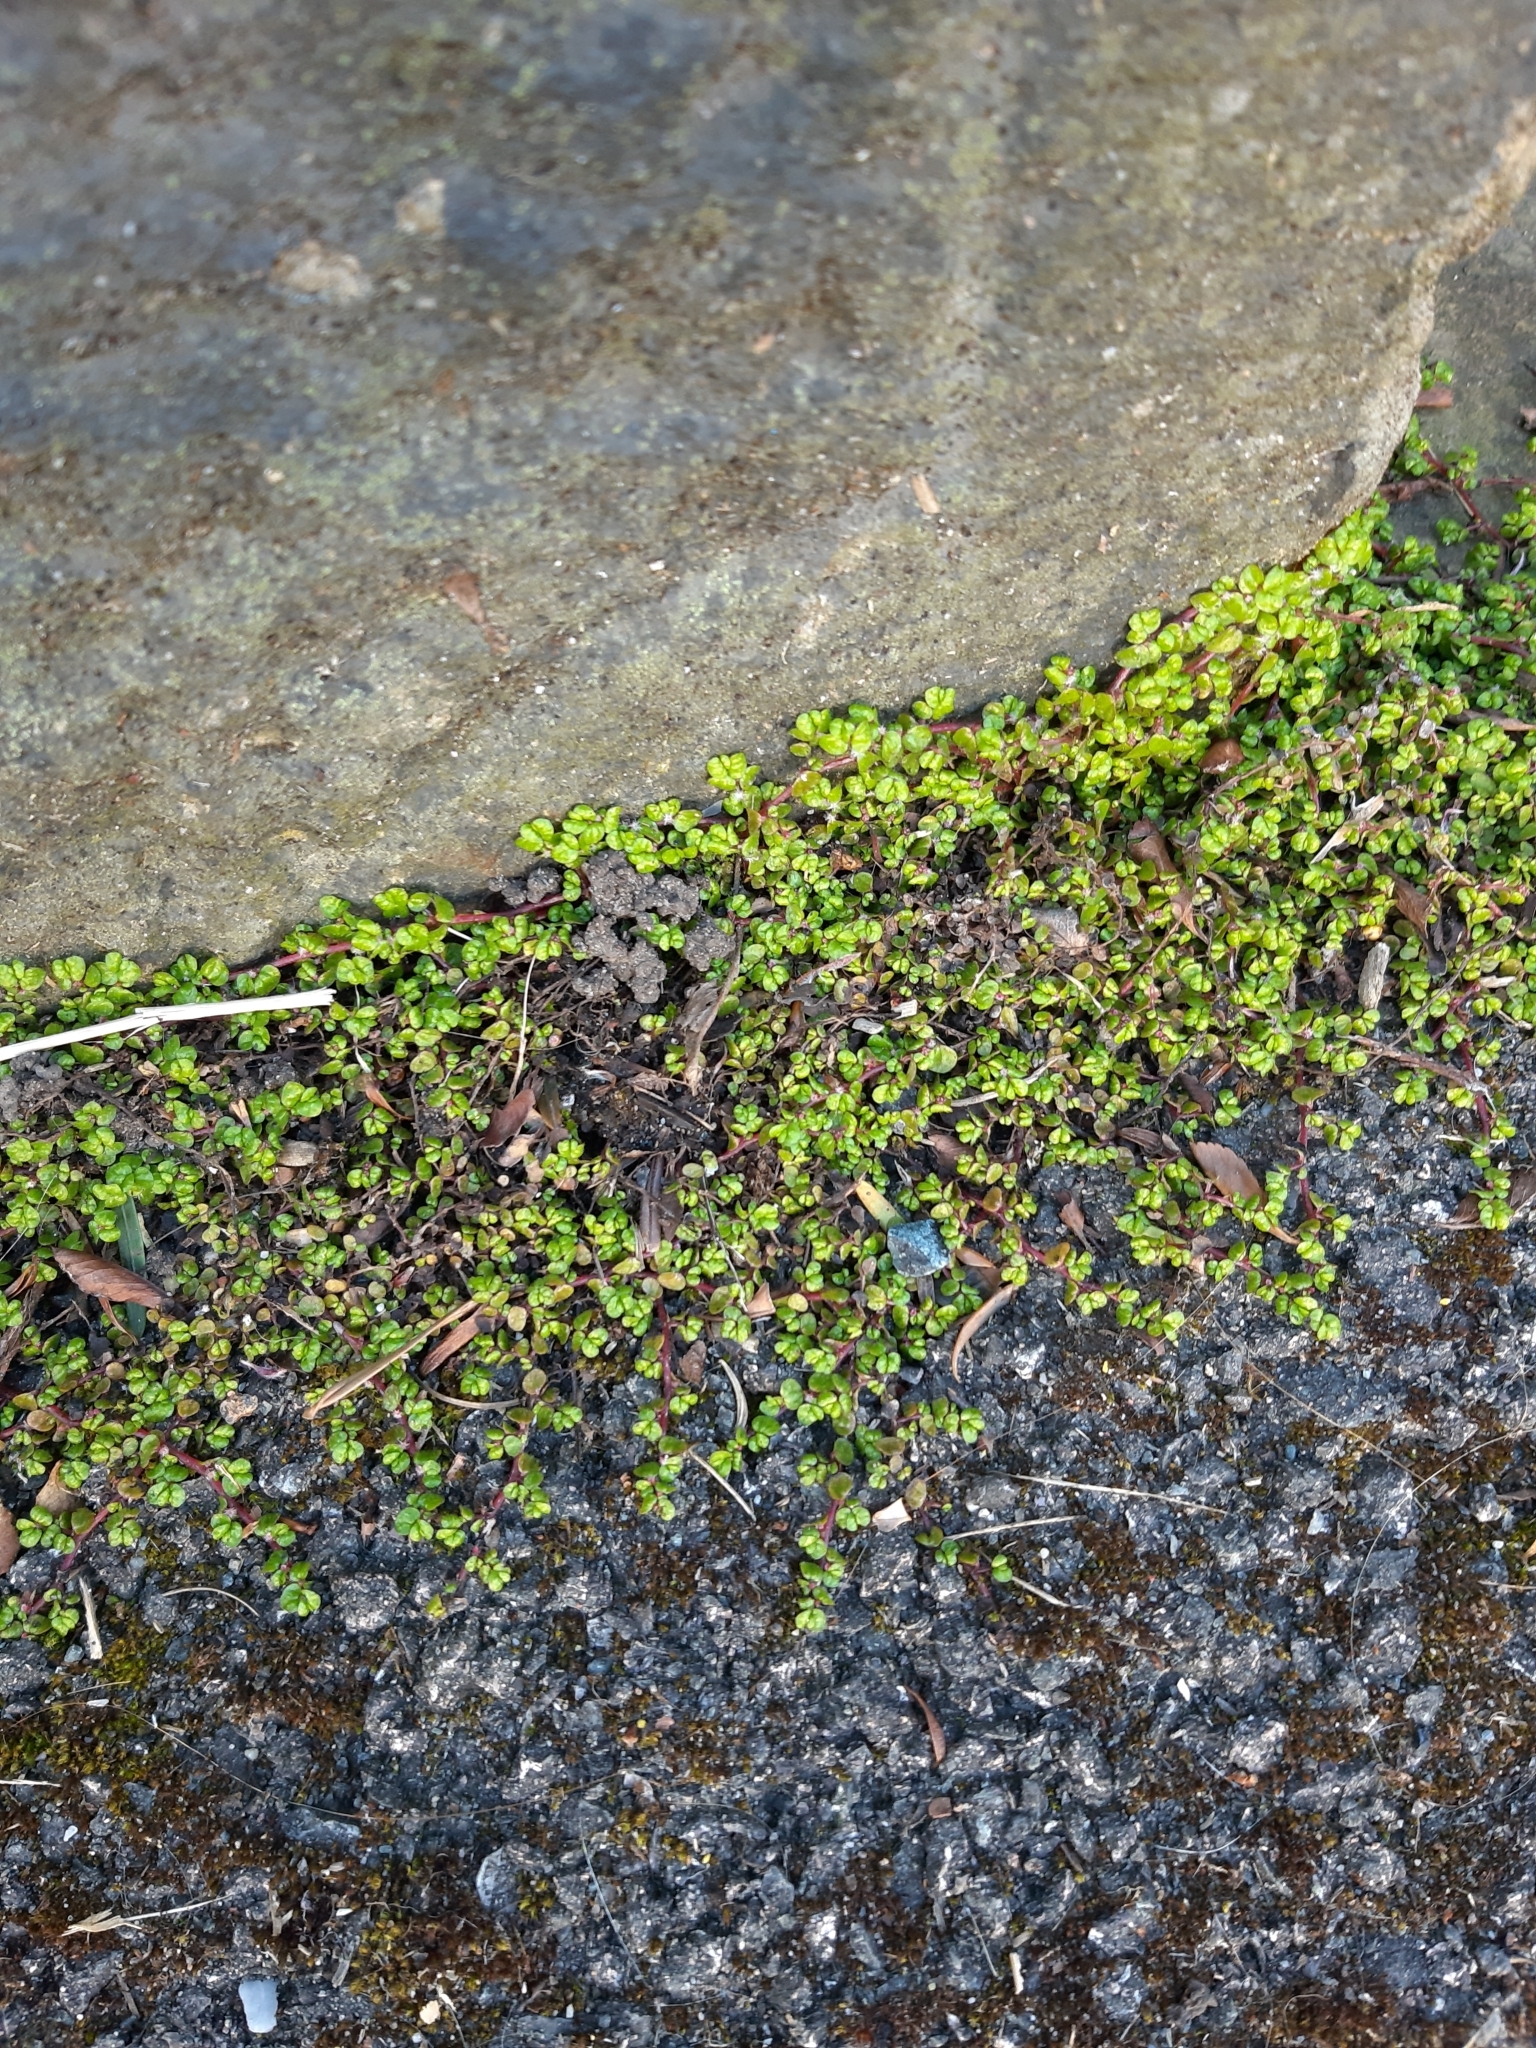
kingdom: Plantae
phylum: Tracheophyta
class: Magnoliopsida
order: Rosales
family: Urticaceae
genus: Soleirolia
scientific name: Soleirolia soleirolii
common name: Mind-your-own-business
